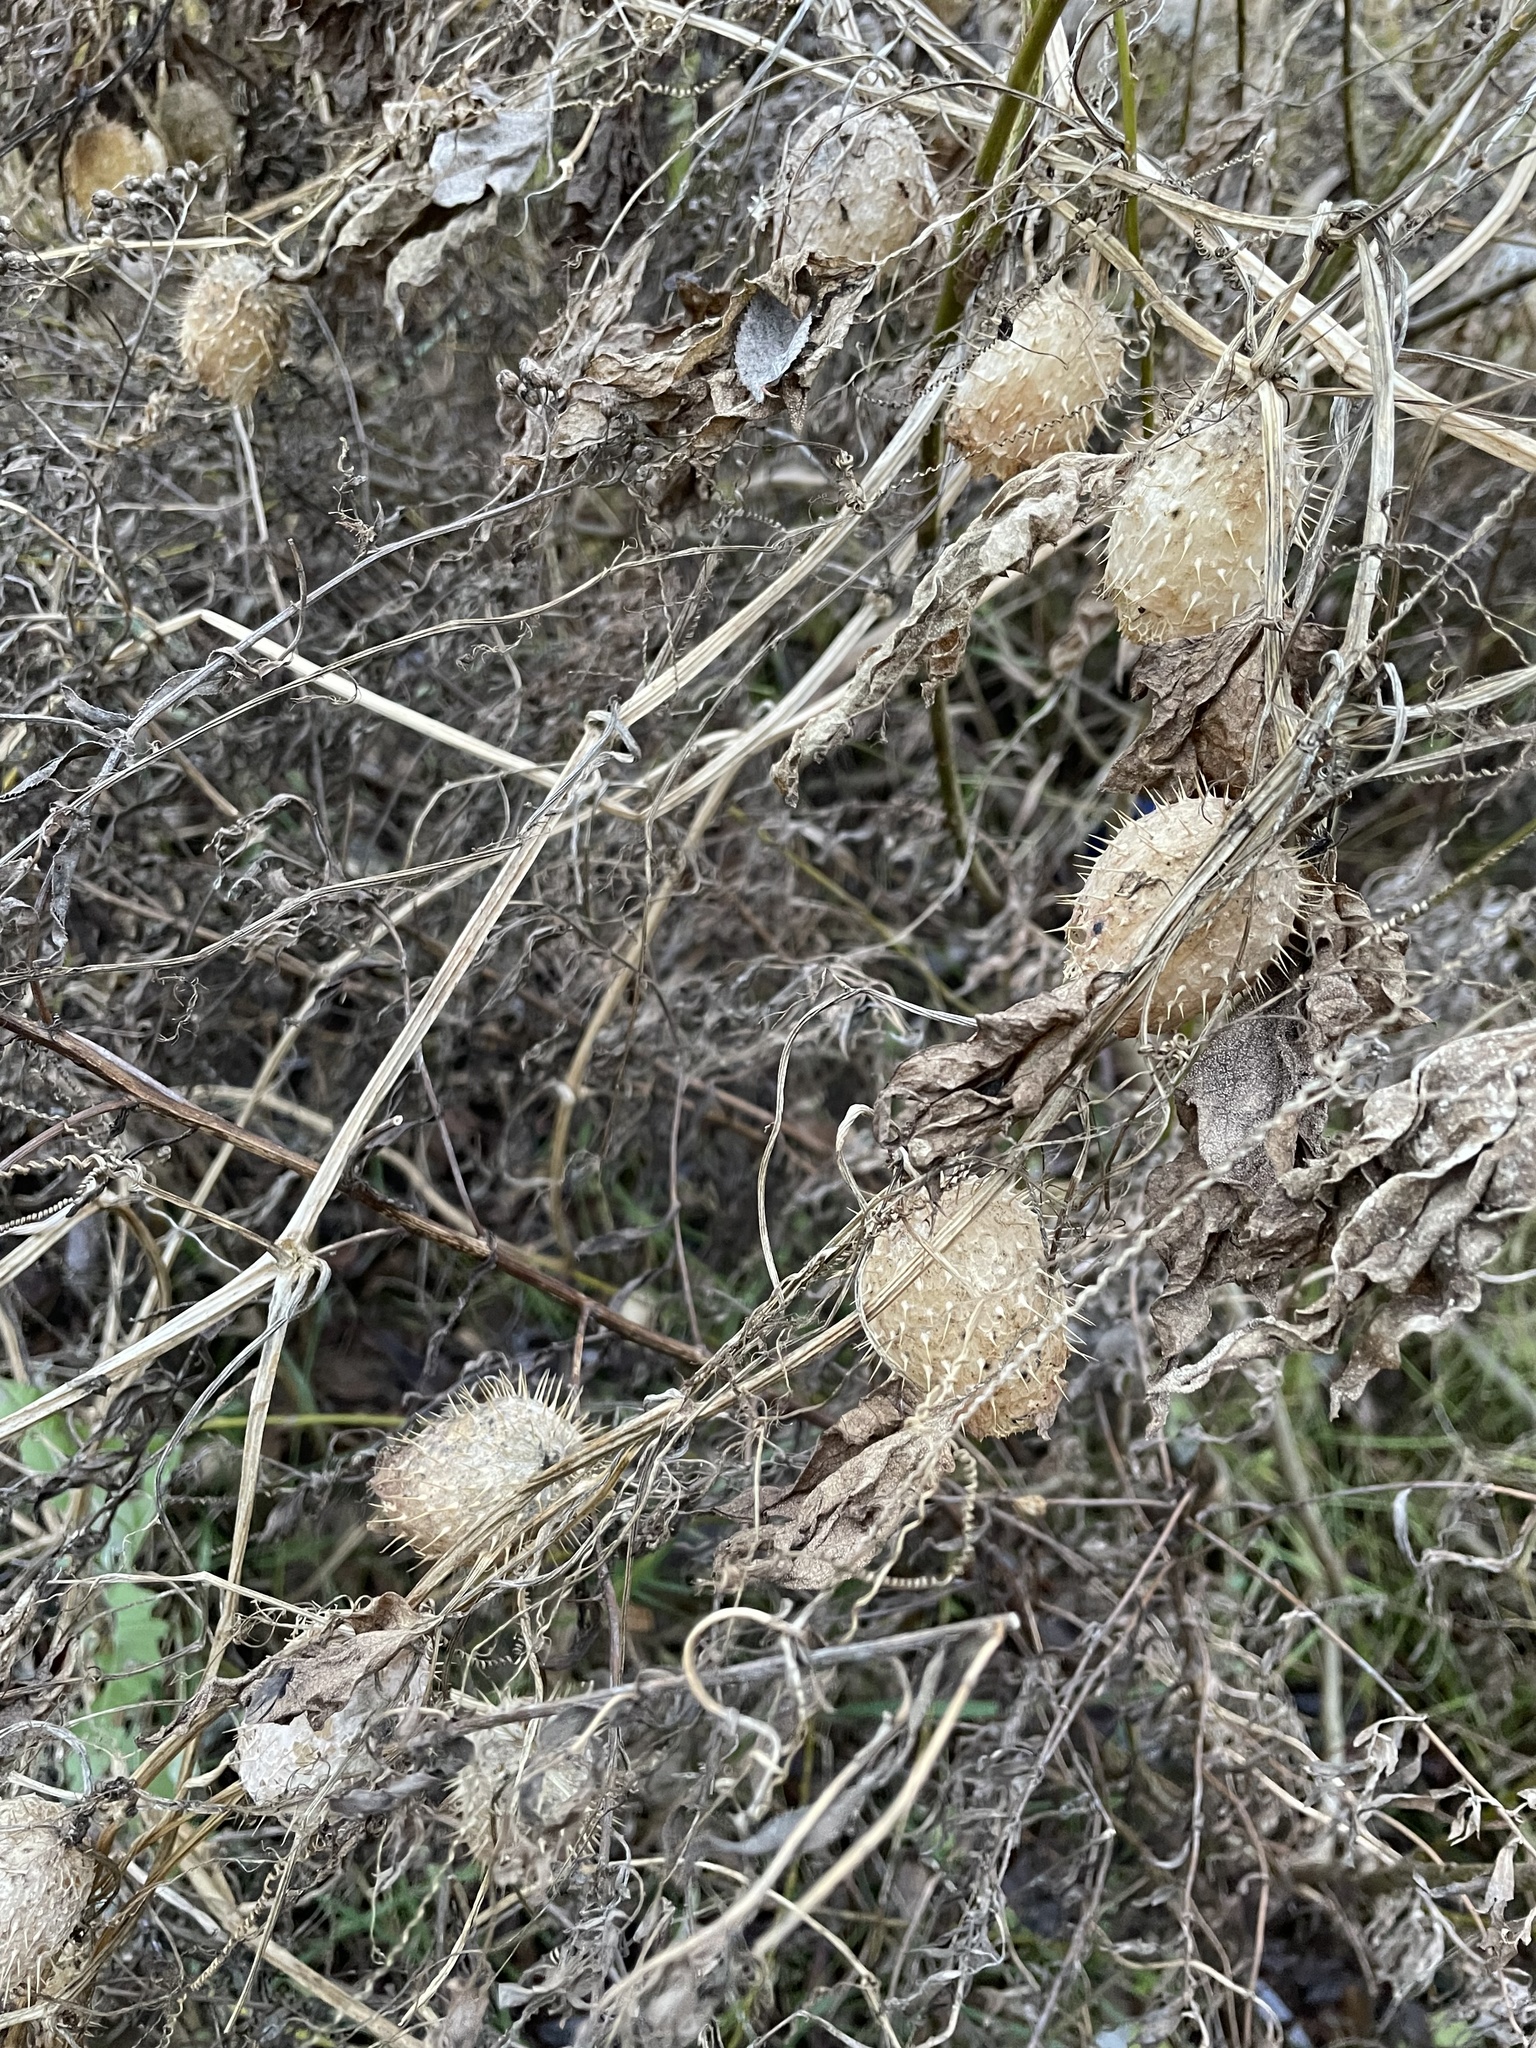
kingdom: Plantae
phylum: Tracheophyta
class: Magnoliopsida
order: Cucurbitales
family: Cucurbitaceae
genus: Echinocystis
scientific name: Echinocystis lobata
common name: Wild cucumber
